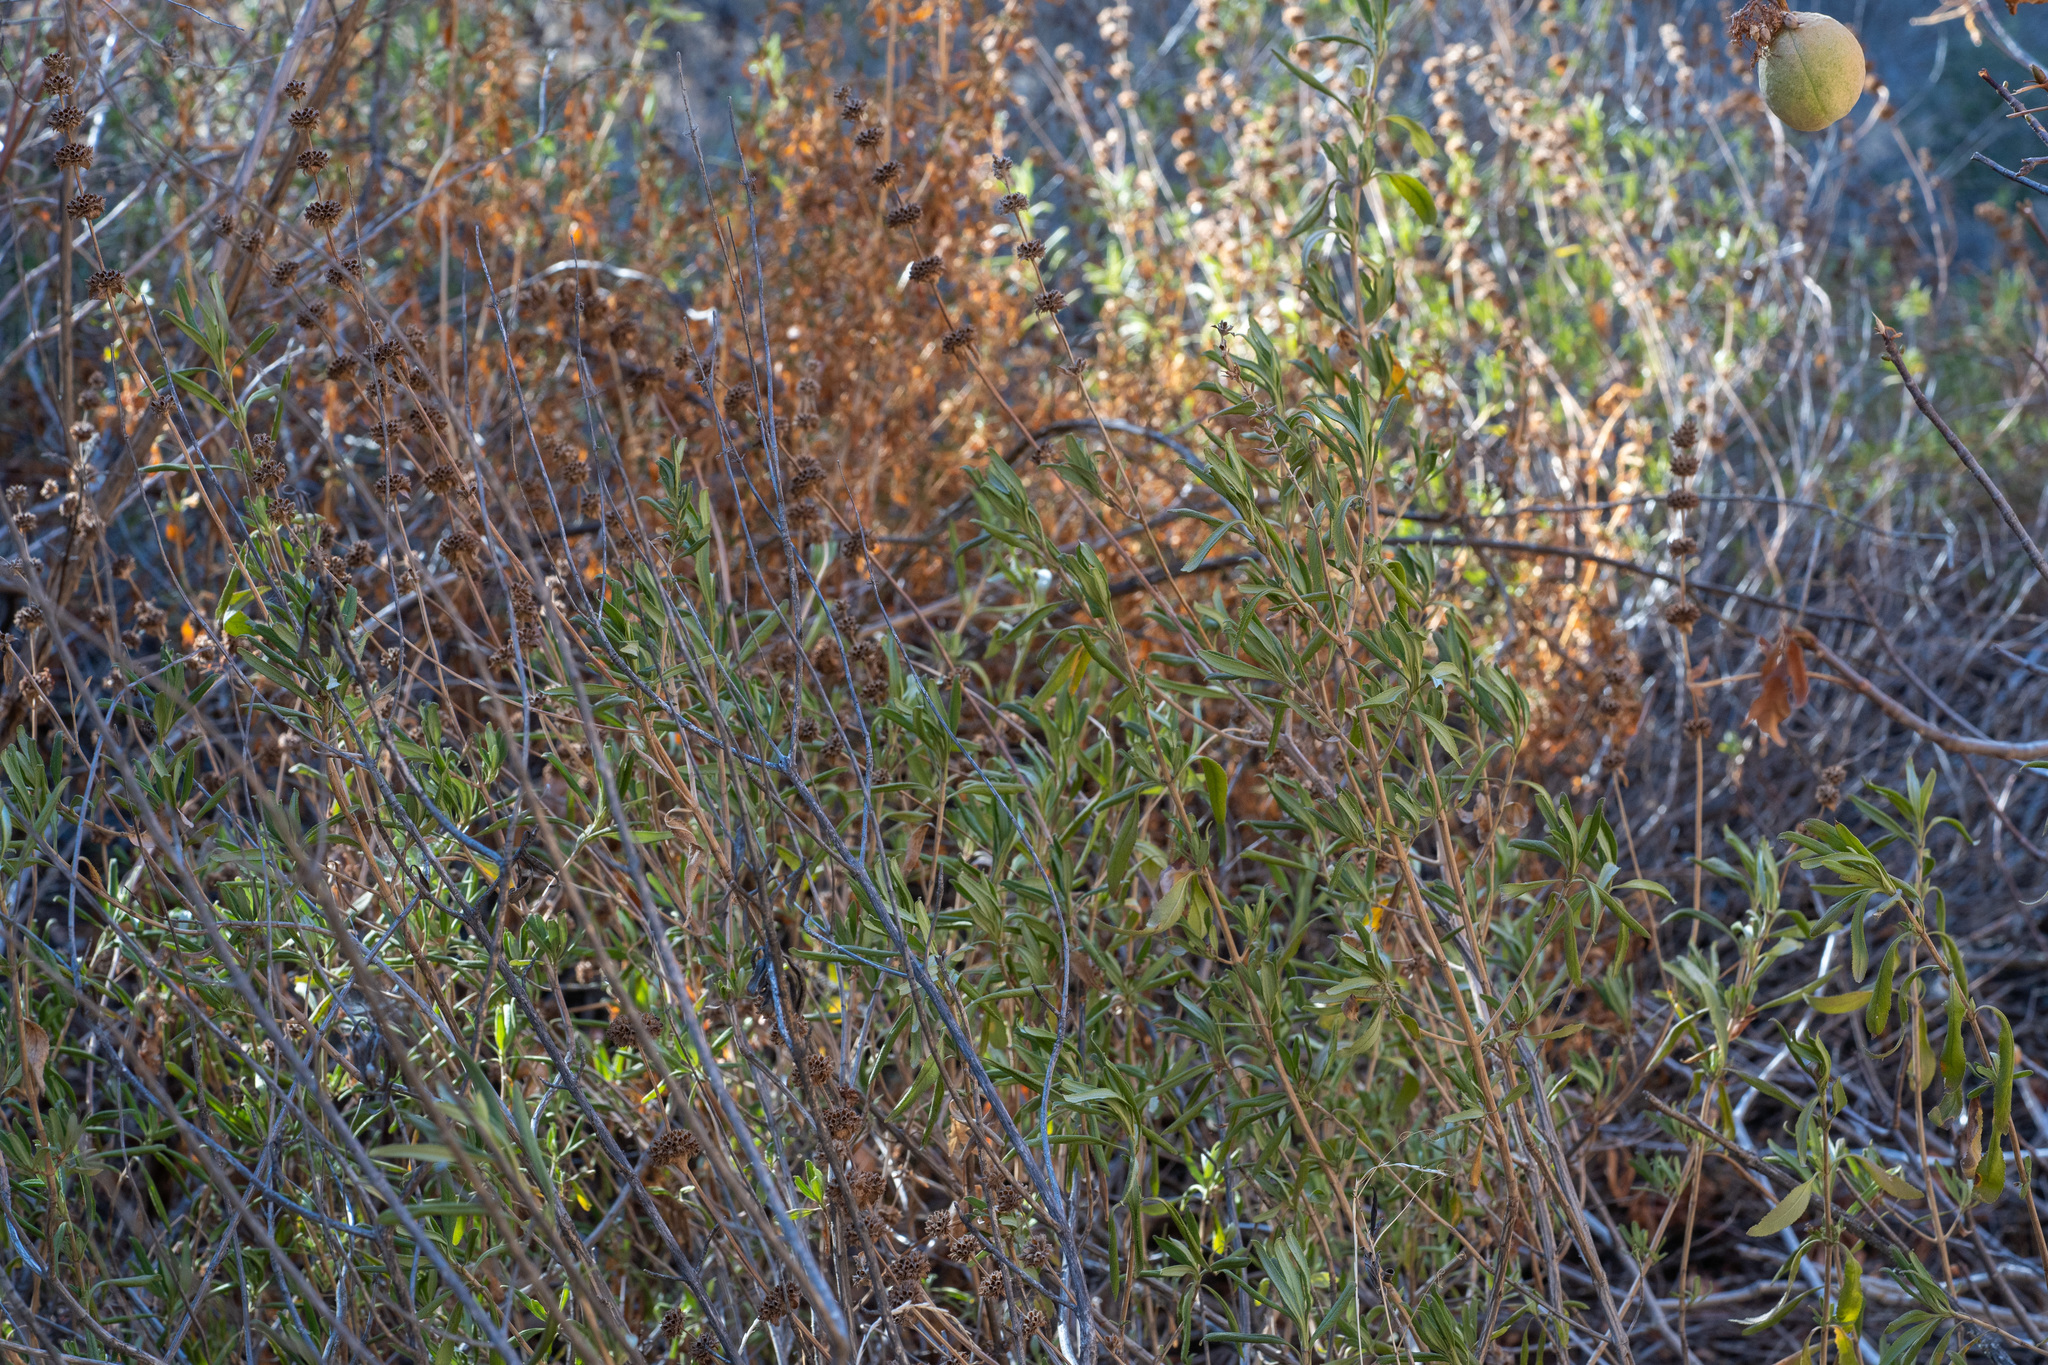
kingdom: Plantae
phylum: Tracheophyta
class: Magnoliopsida
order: Lamiales
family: Lamiaceae
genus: Salvia
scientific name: Salvia mellifera
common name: Black sage
